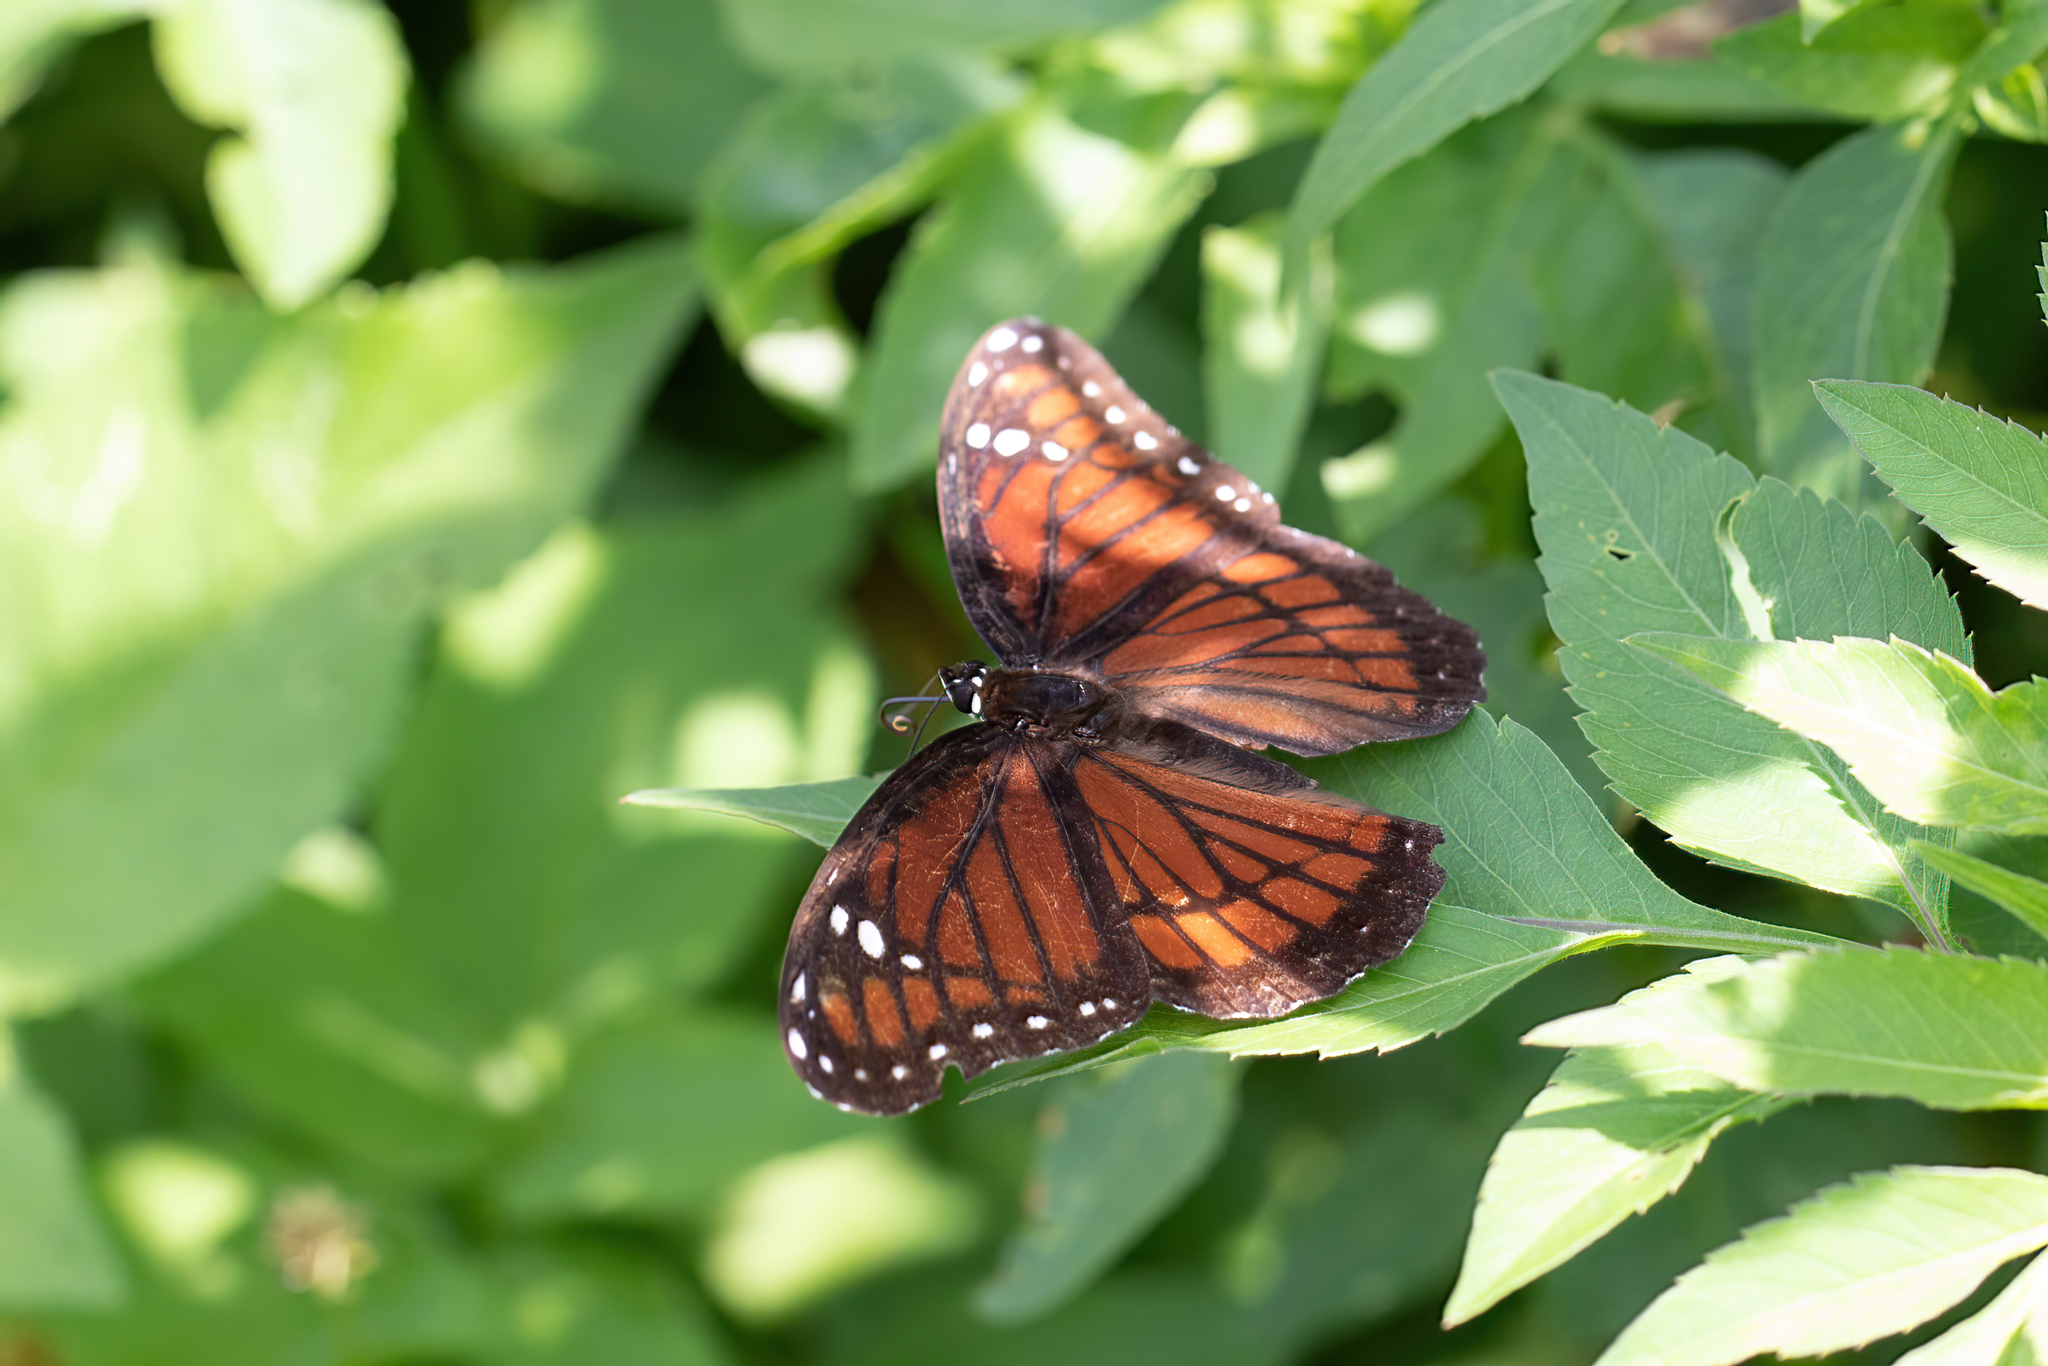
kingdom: Animalia
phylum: Arthropoda
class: Insecta
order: Lepidoptera
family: Nymphalidae
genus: Limenitis
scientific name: Limenitis archippus
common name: Viceroy
